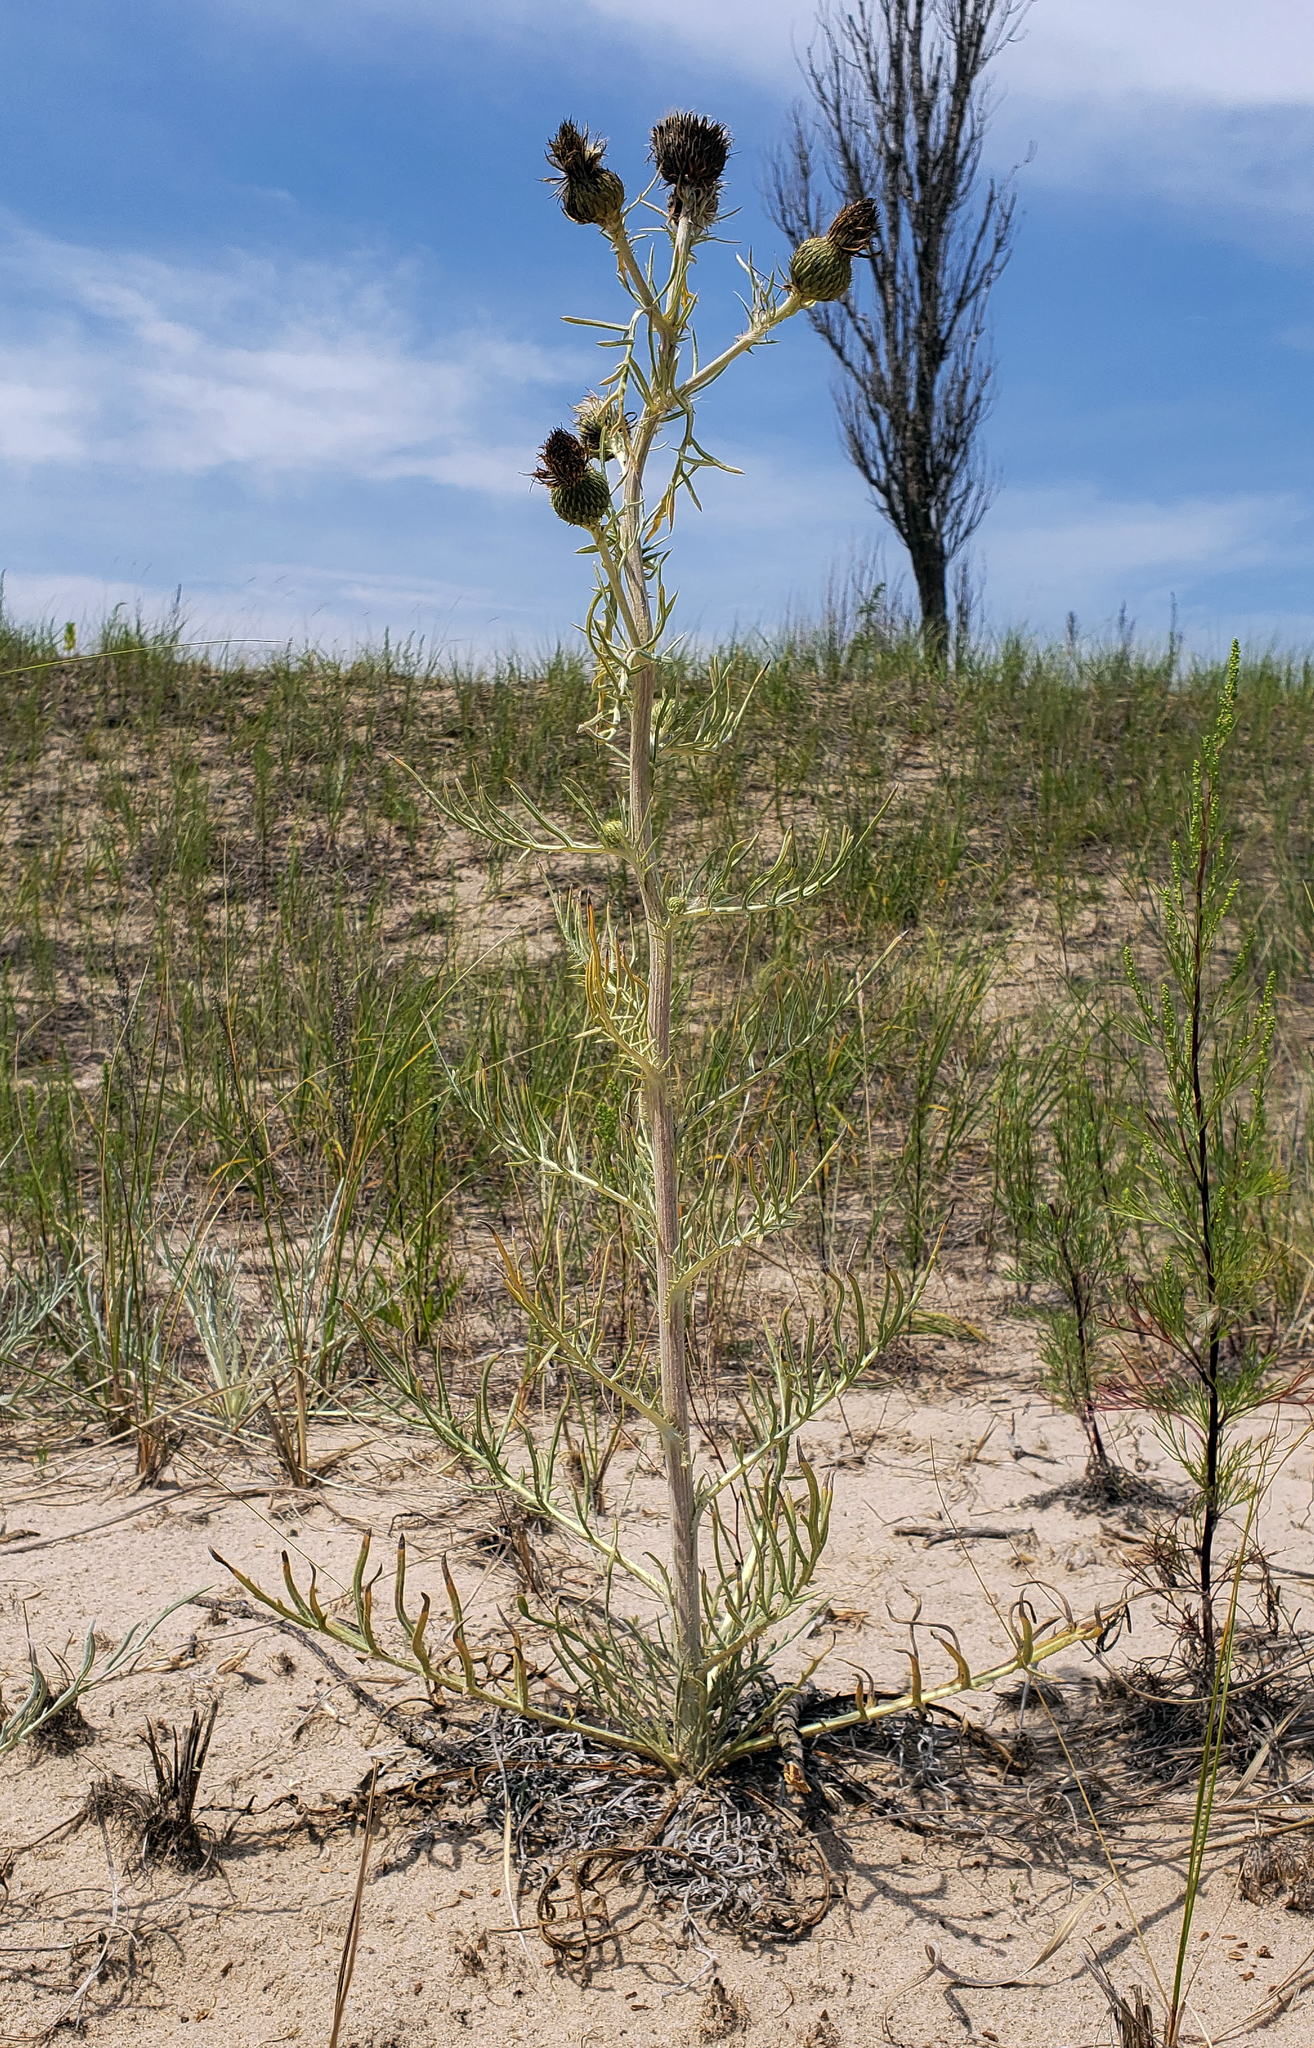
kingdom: Plantae
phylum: Tracheophyta
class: Magnoliopsida
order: Asterales
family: Asteraceae
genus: Cirsium
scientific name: Cirsium pitcheri
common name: Dune thistle
